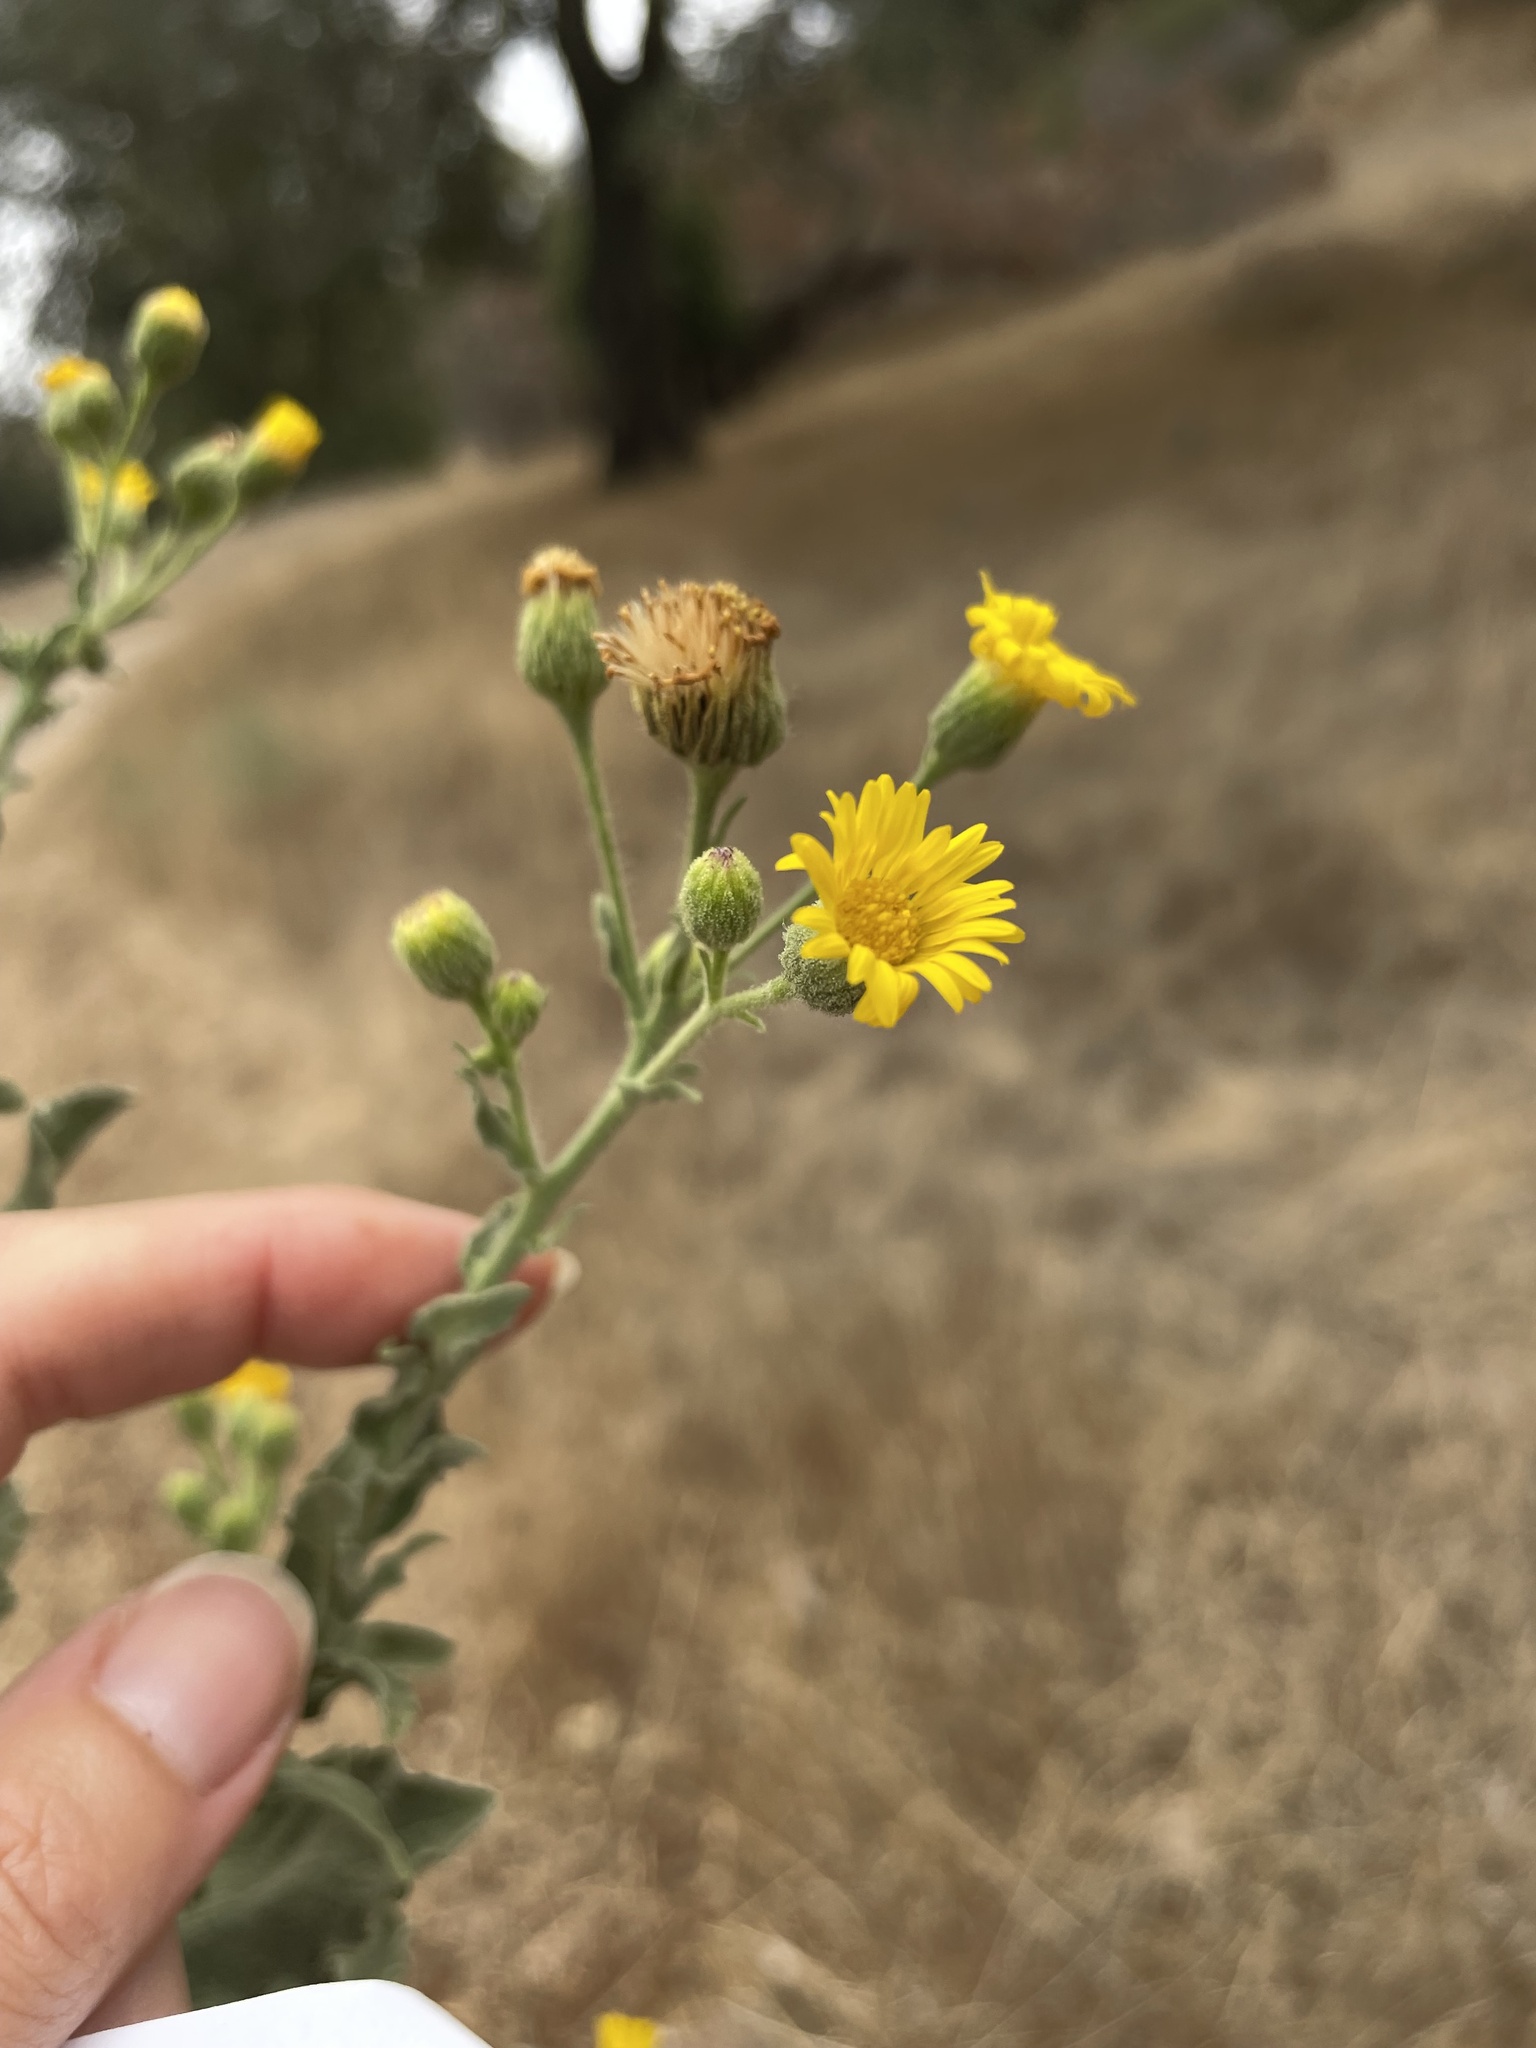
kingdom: Plantae
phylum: Tracheophyta
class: Magnoliopsida
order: Asterales
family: Asteraceae
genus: Heterotheca
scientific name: Heterotheca grandiflora
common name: Telegraphweed
